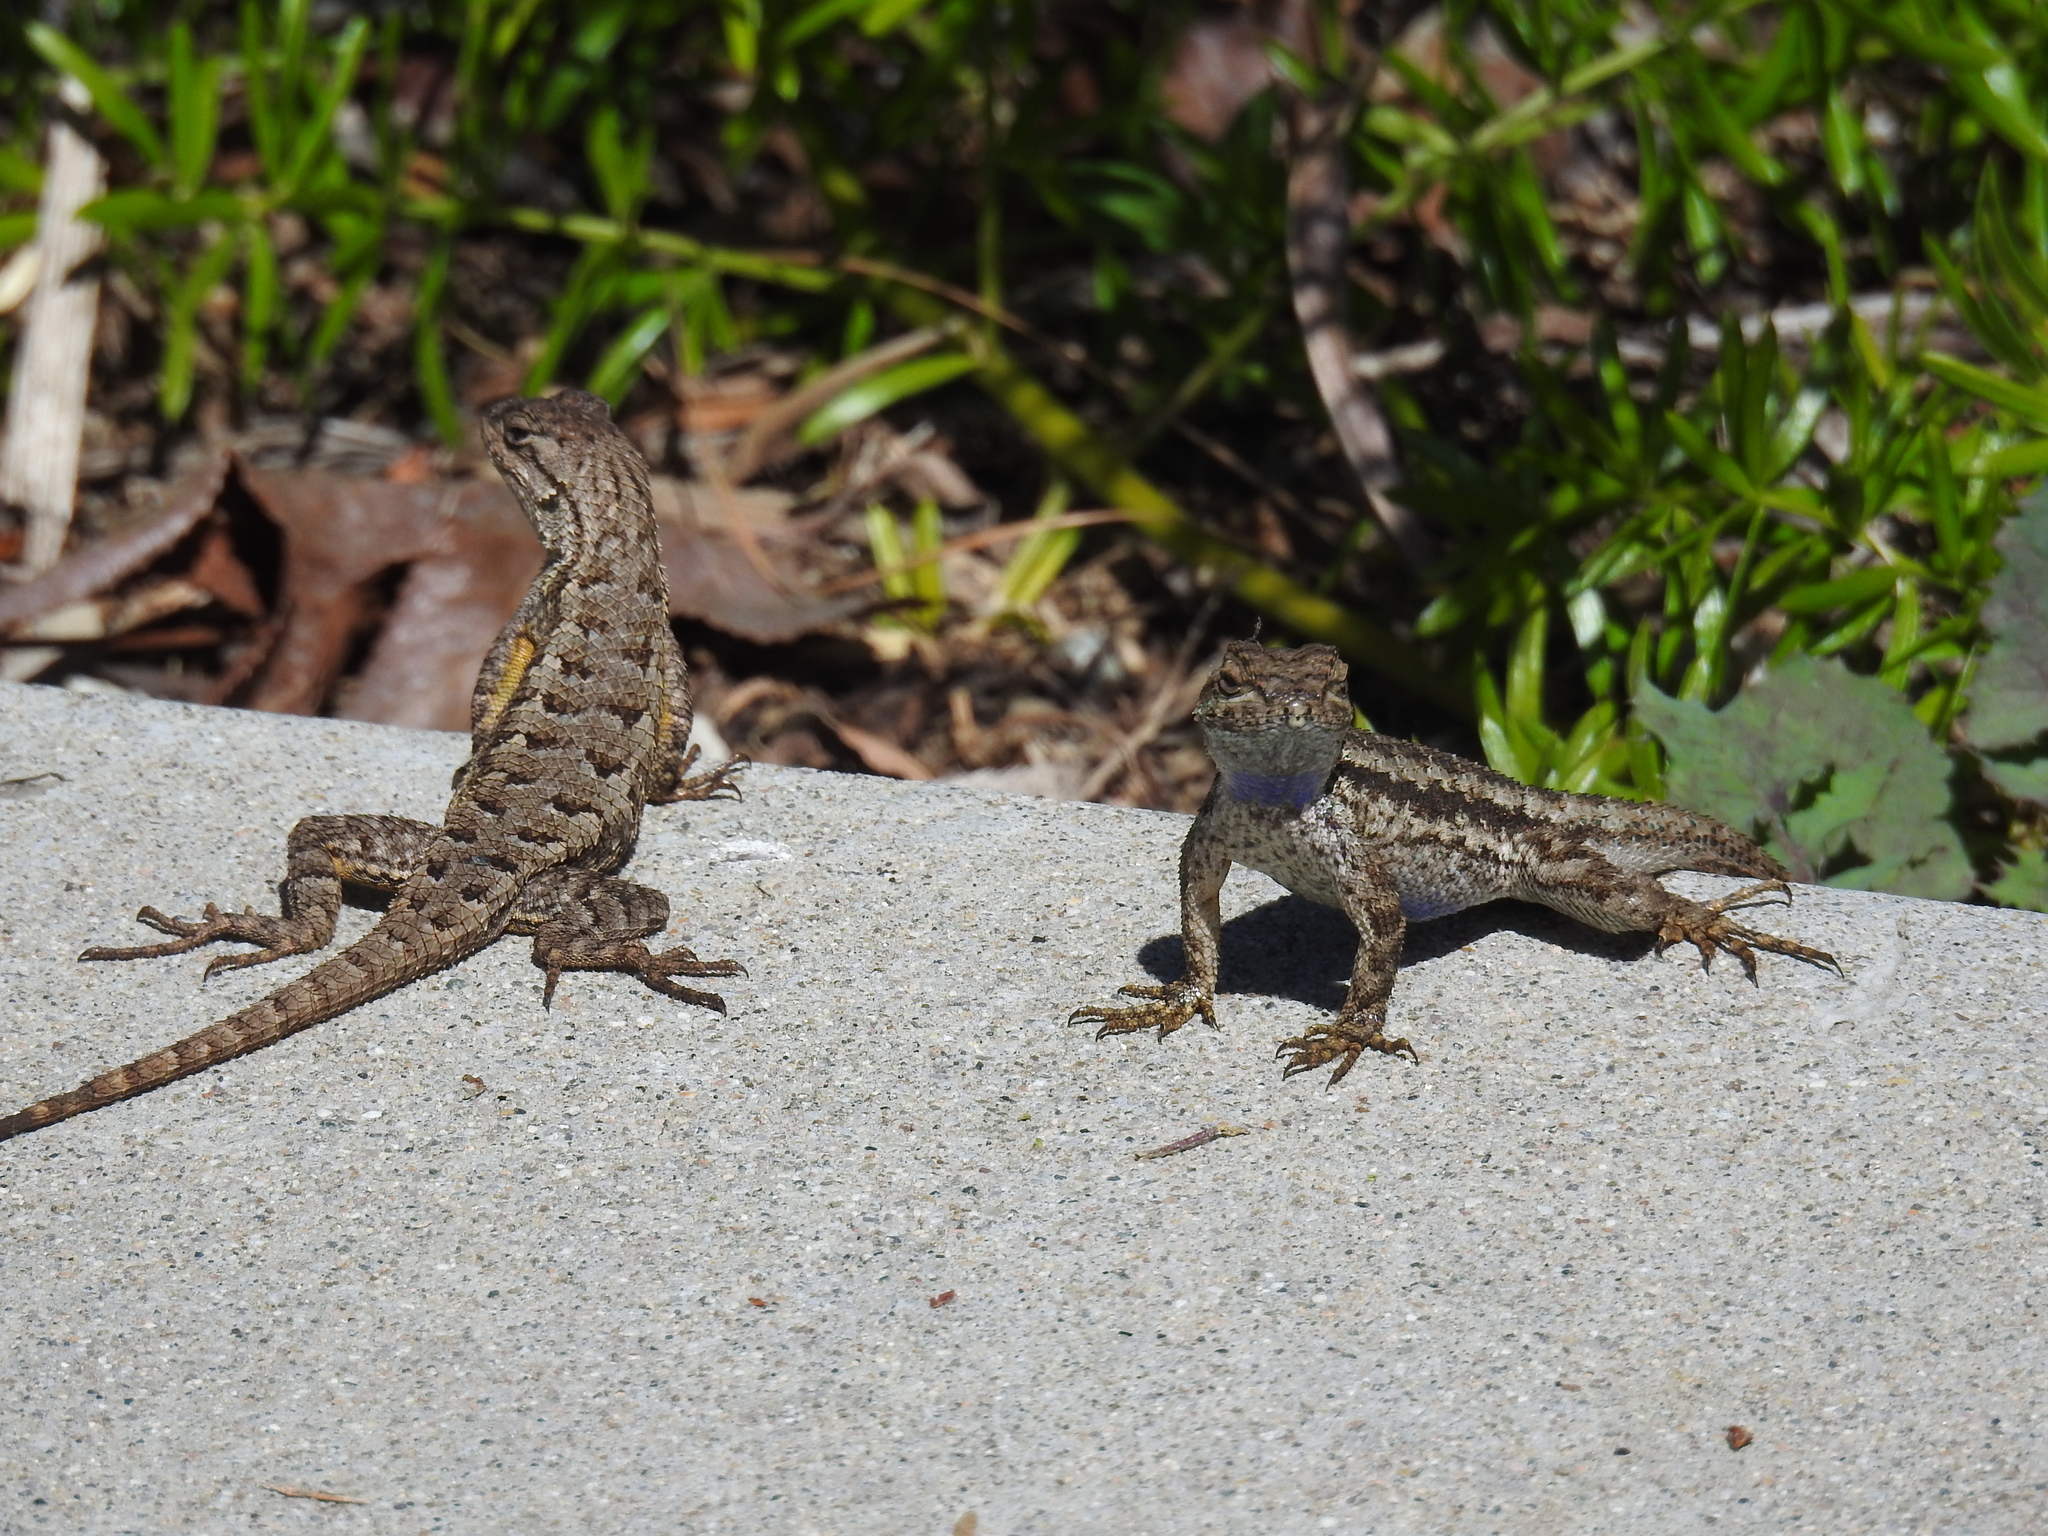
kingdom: Animalia
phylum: Chordata
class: Squamata
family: Phrynosomatidae
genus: Sceloporus
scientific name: Sceloporus occidentalis
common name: Western fence lizard
